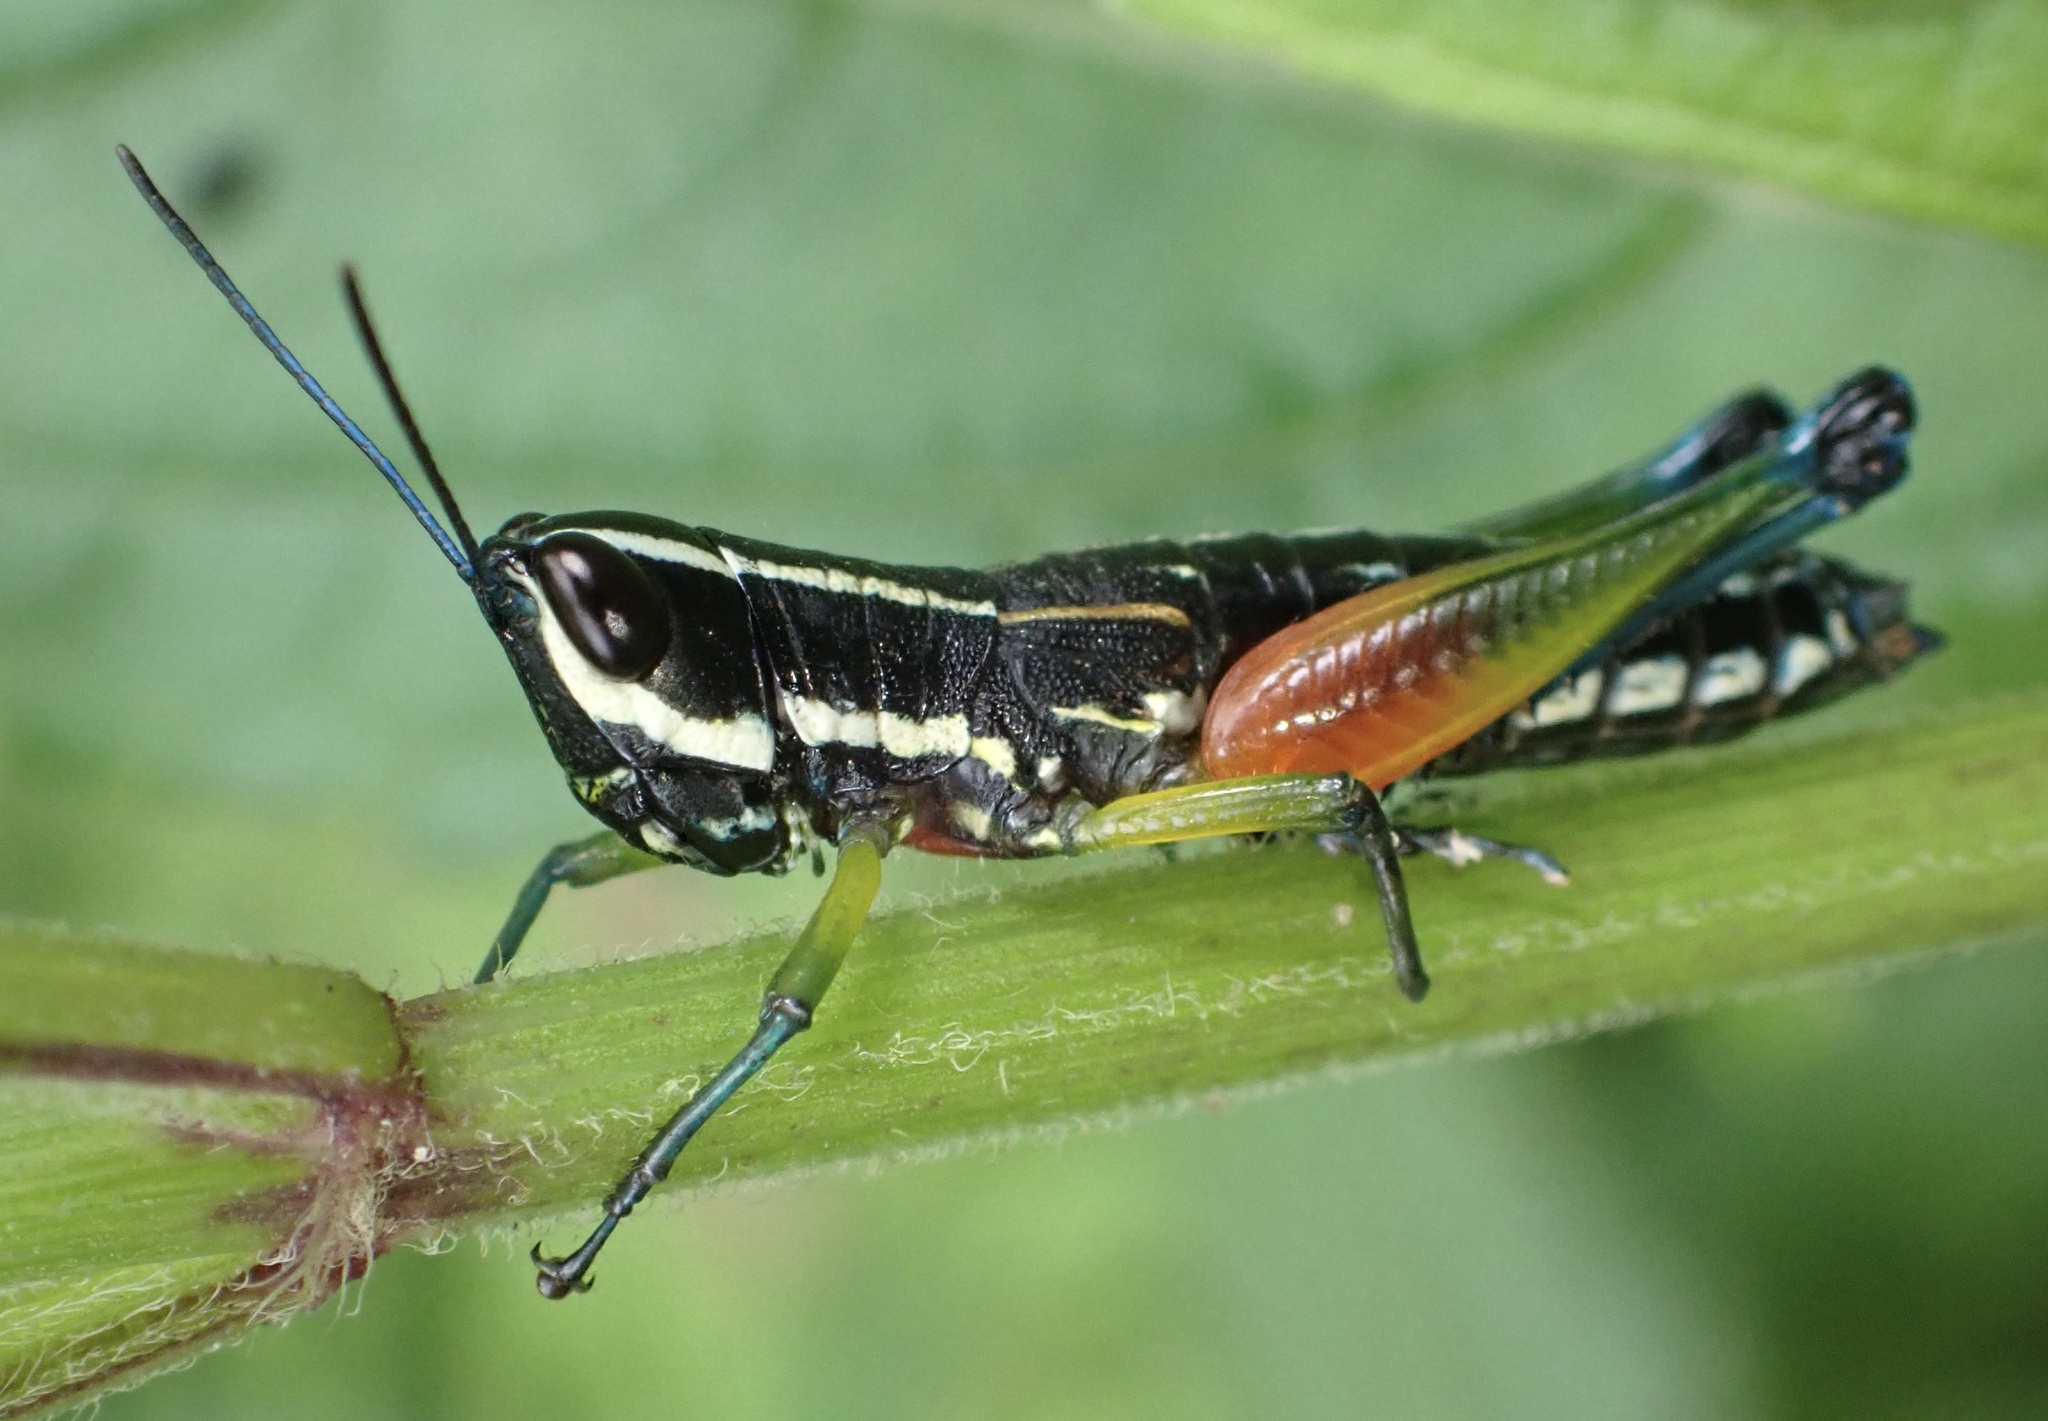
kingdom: Animalia
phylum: Arthropoda
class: Insecta
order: Orthoptera
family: Acrididae
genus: Chitaura
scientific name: Chitaura ochracea
